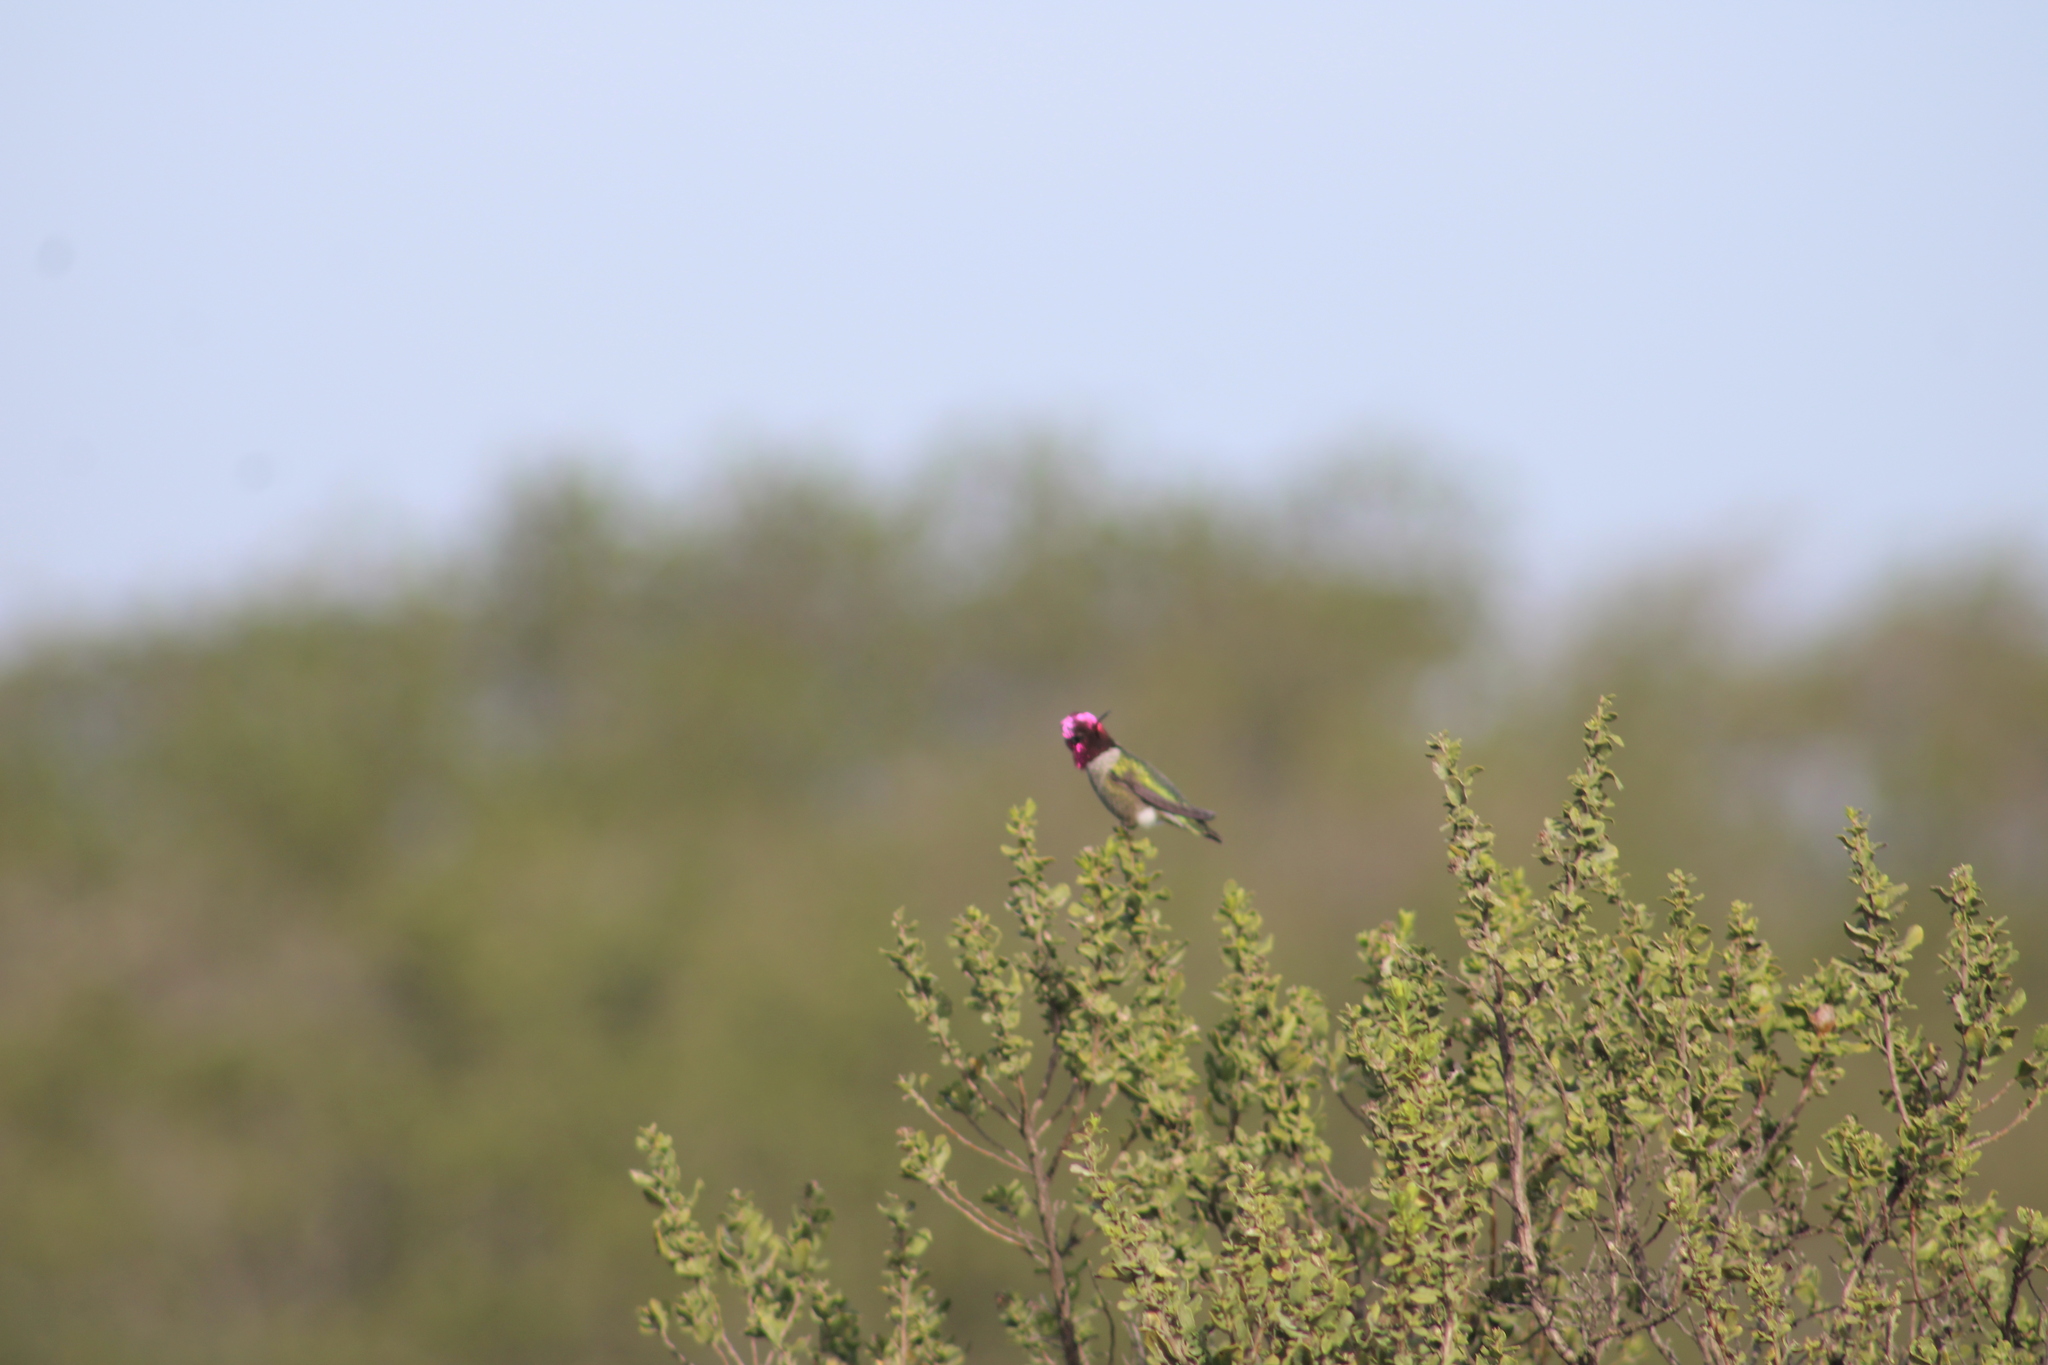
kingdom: Animalia
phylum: Chordata
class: Aves
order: Apodiformes
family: Trochilidae
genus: Calypte
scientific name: Calypte anna
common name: Anna's hummingbird
